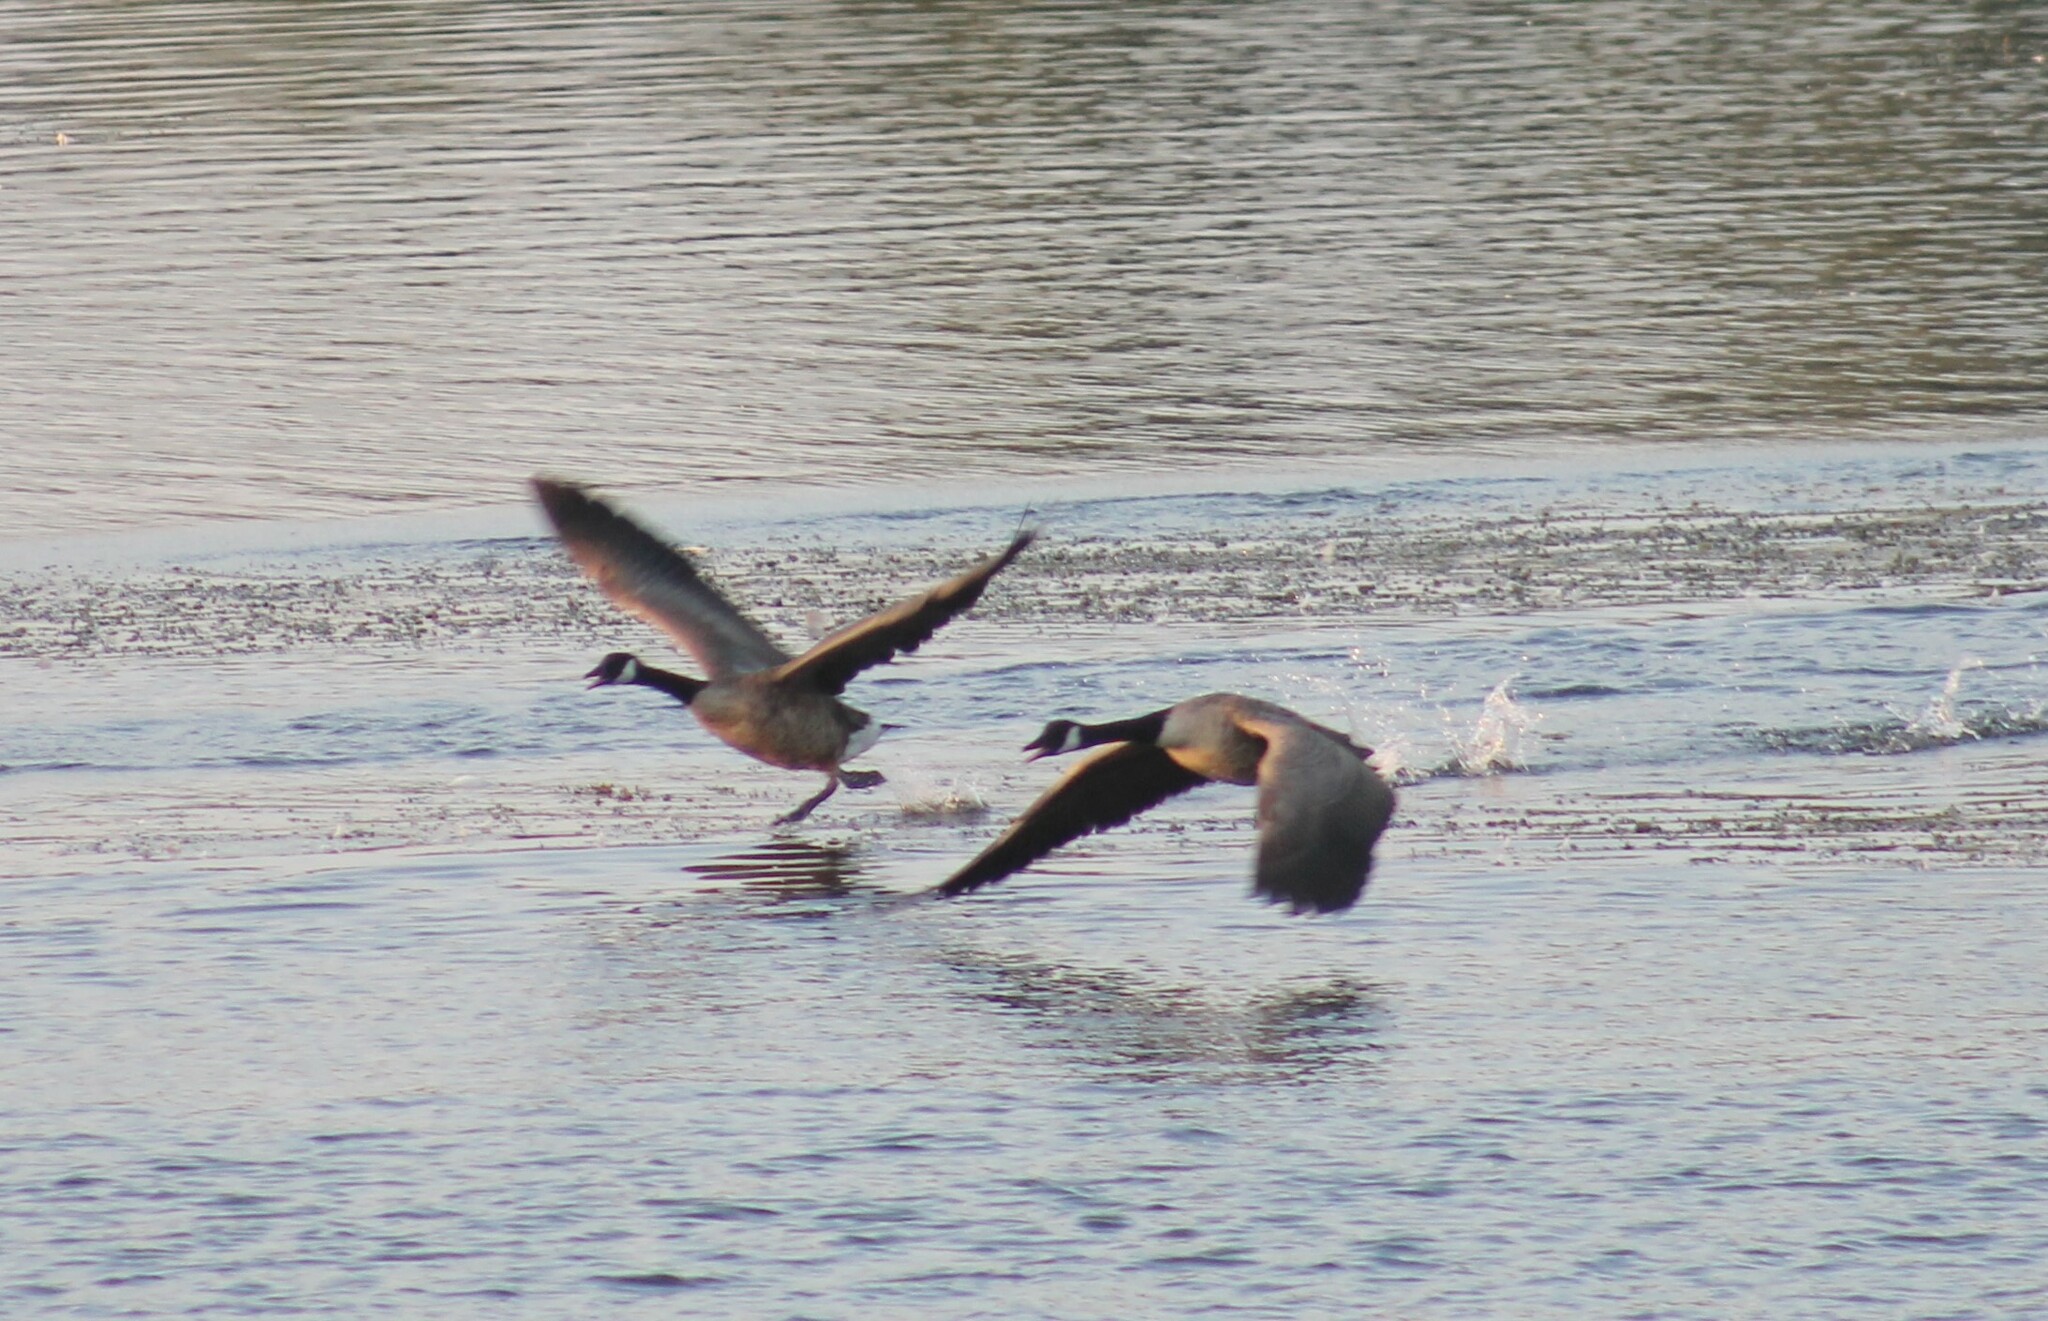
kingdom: Animalia
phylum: Chordata
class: Aves
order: Anseriformes
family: Anatidae
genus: Branta
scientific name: Branta canadensis
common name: Canada goose
